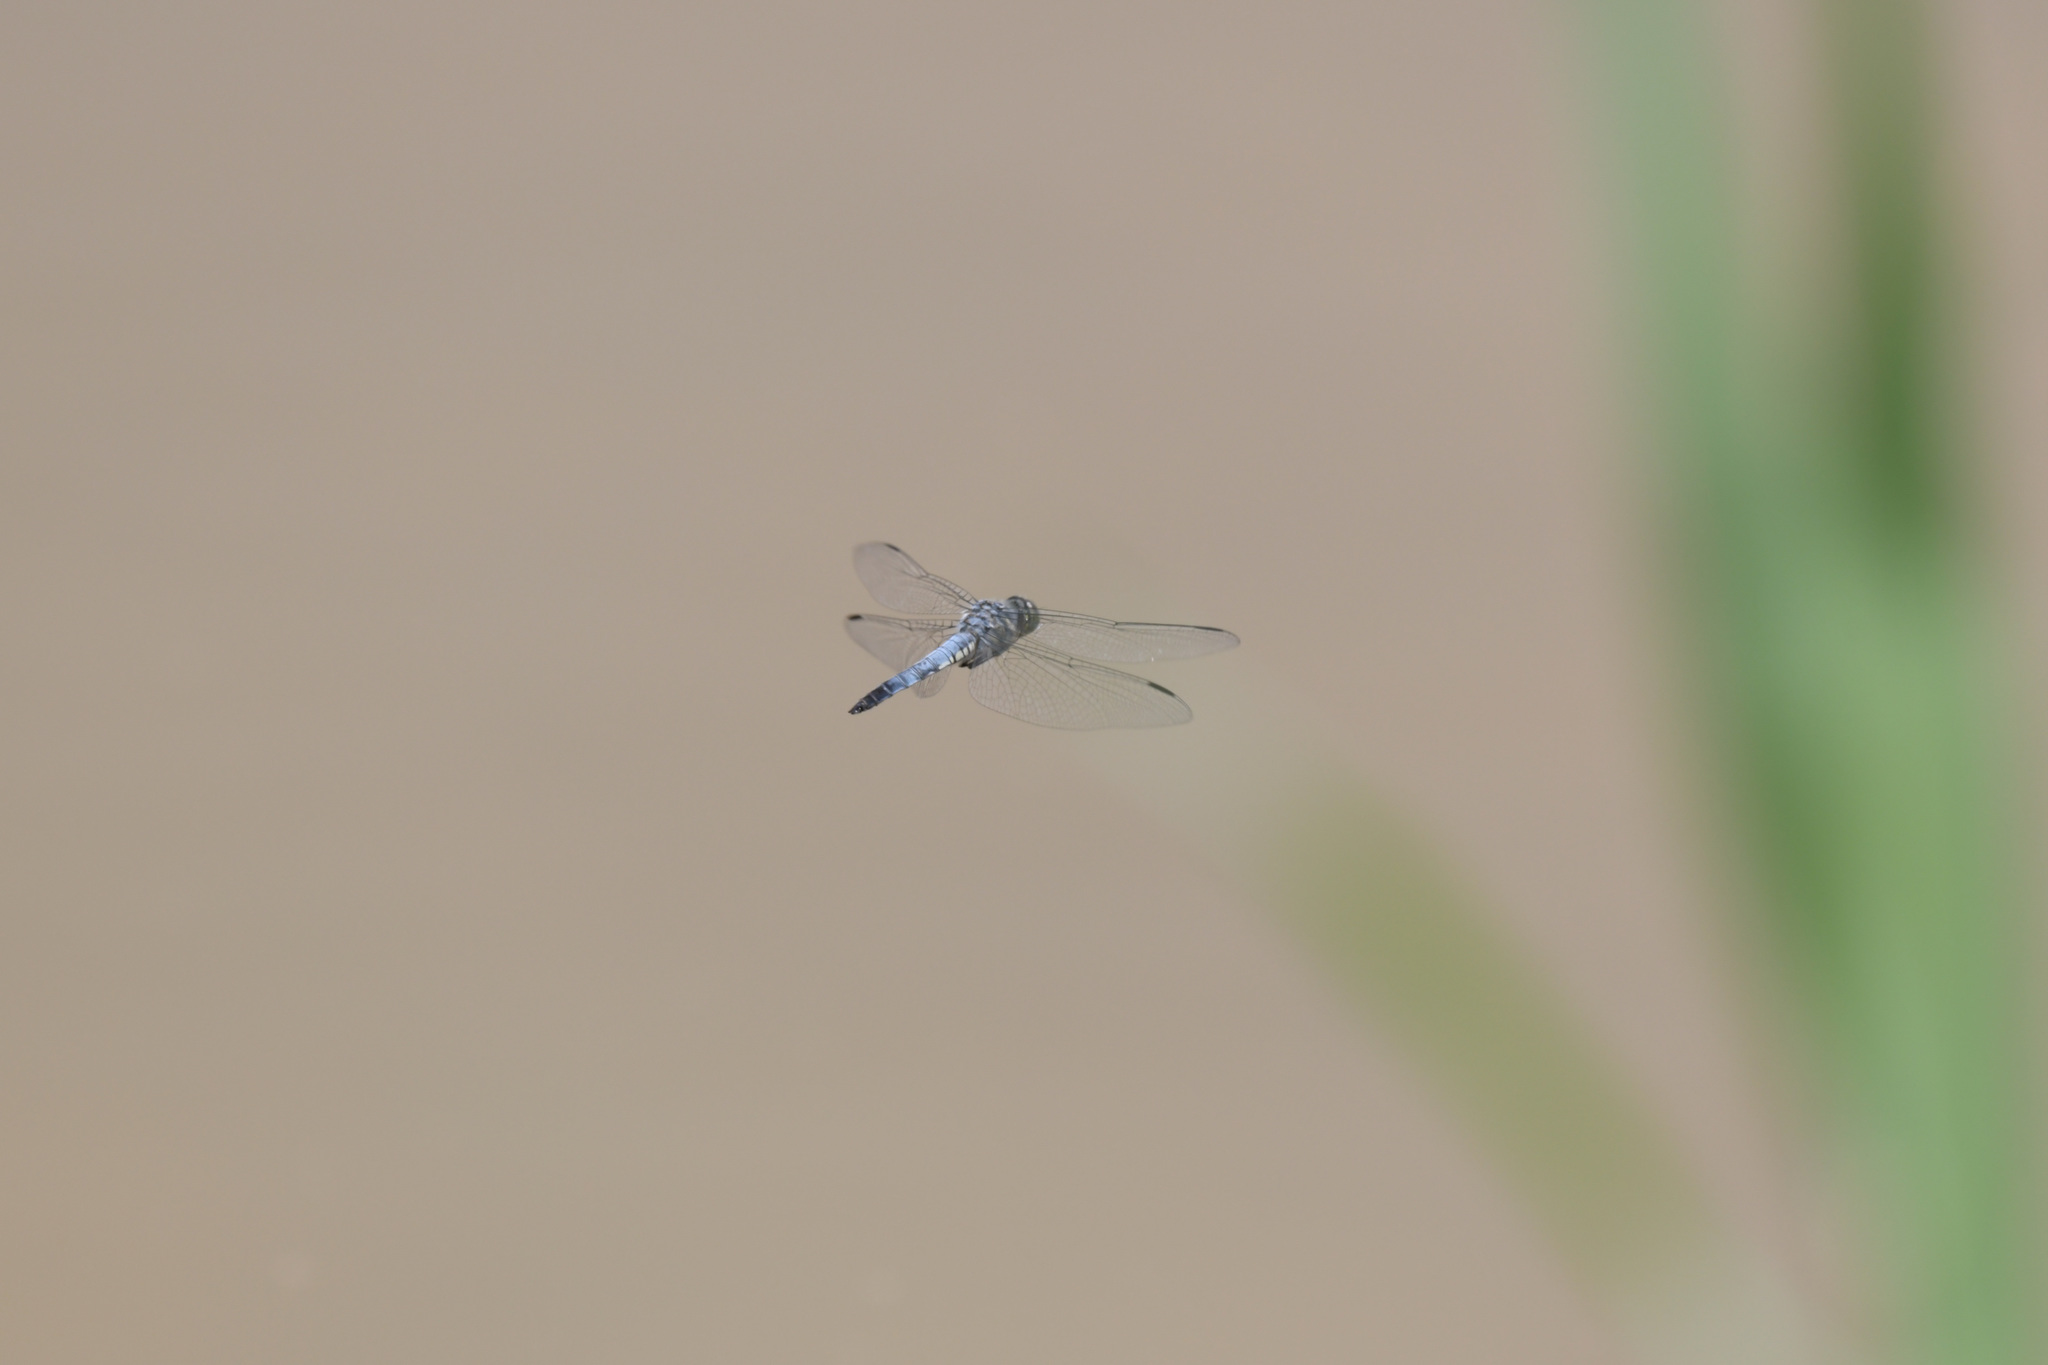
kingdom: Animalia
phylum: Arthropoda
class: Insecta
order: Odonata
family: Libellulidae
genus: Deielia
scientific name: Deielia phaon
